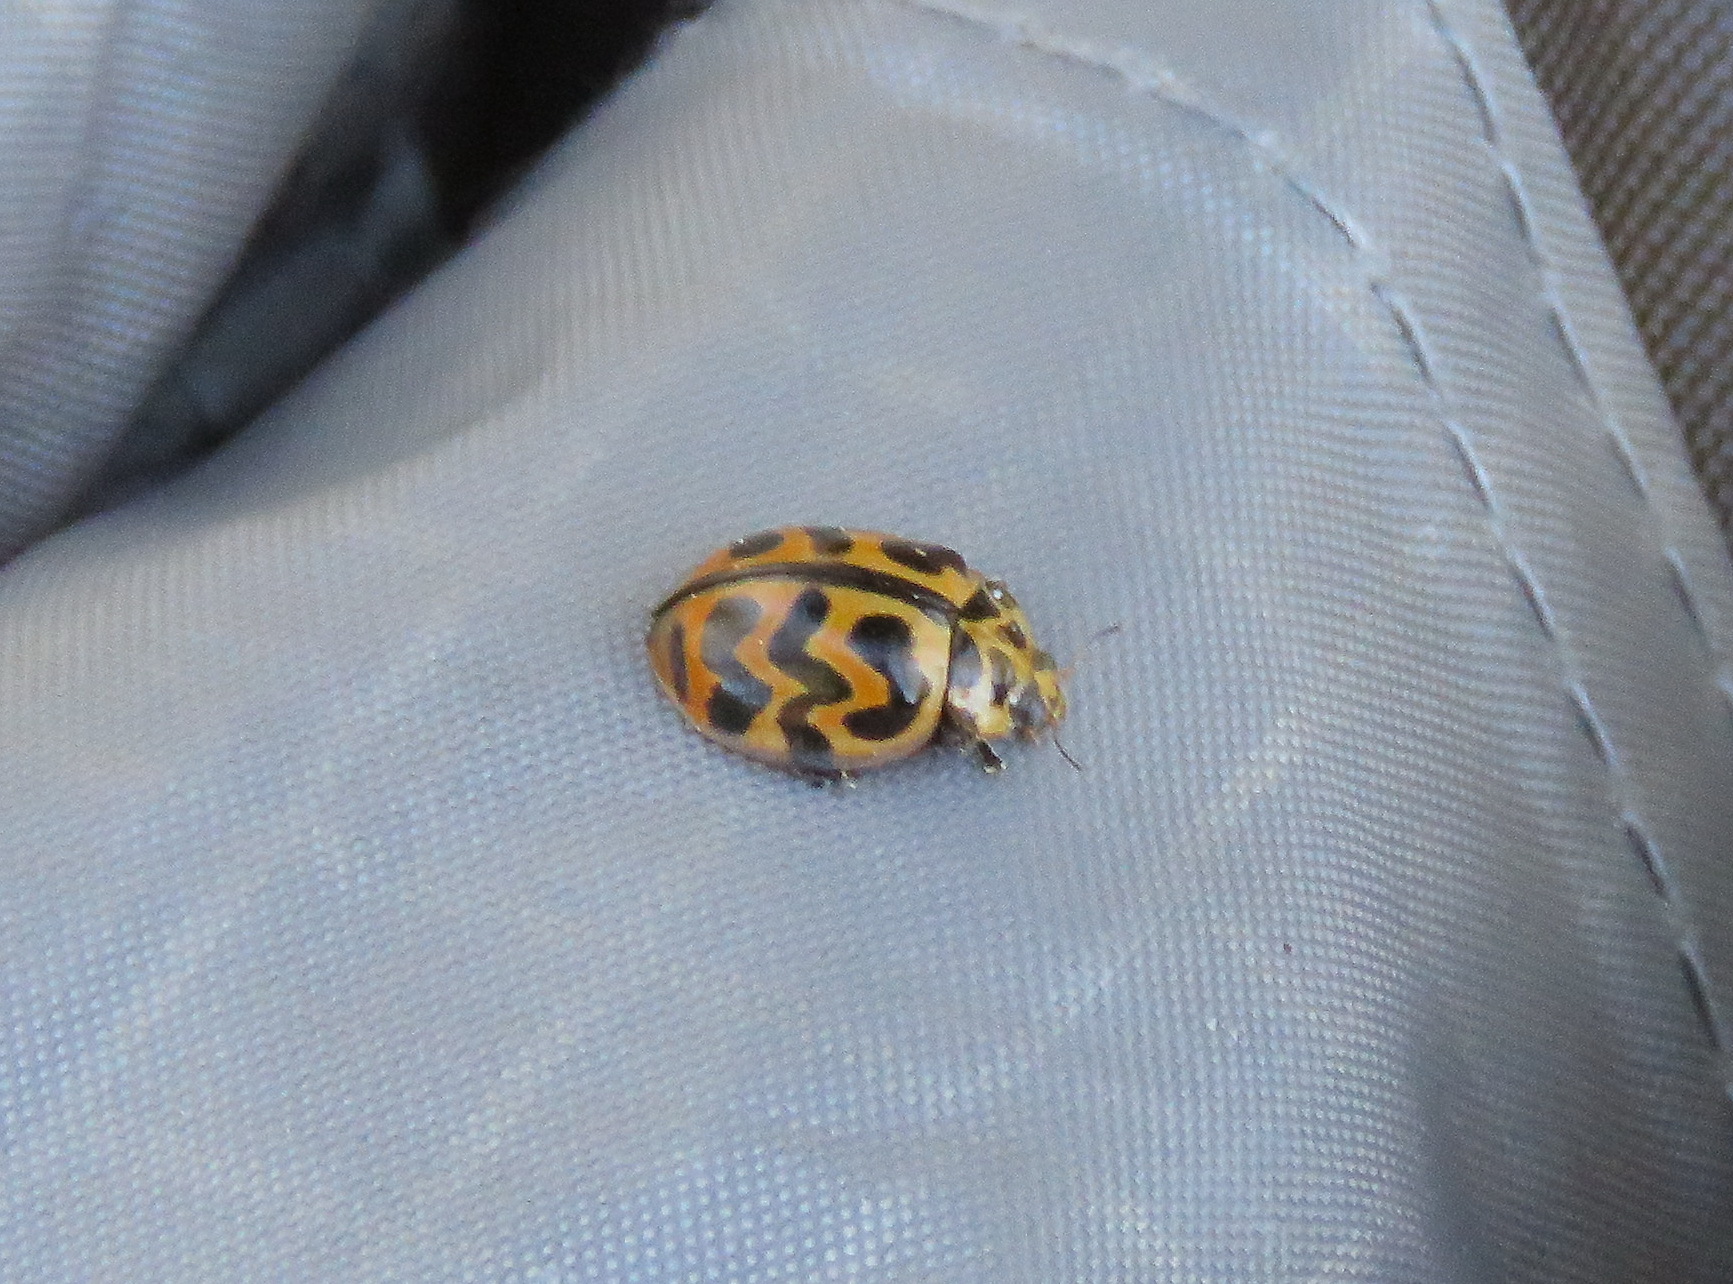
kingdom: Animalia
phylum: Arthropoda
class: Insecta
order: Coleoptera
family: Coccinellidae
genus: Cleobora
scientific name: Cleobora
